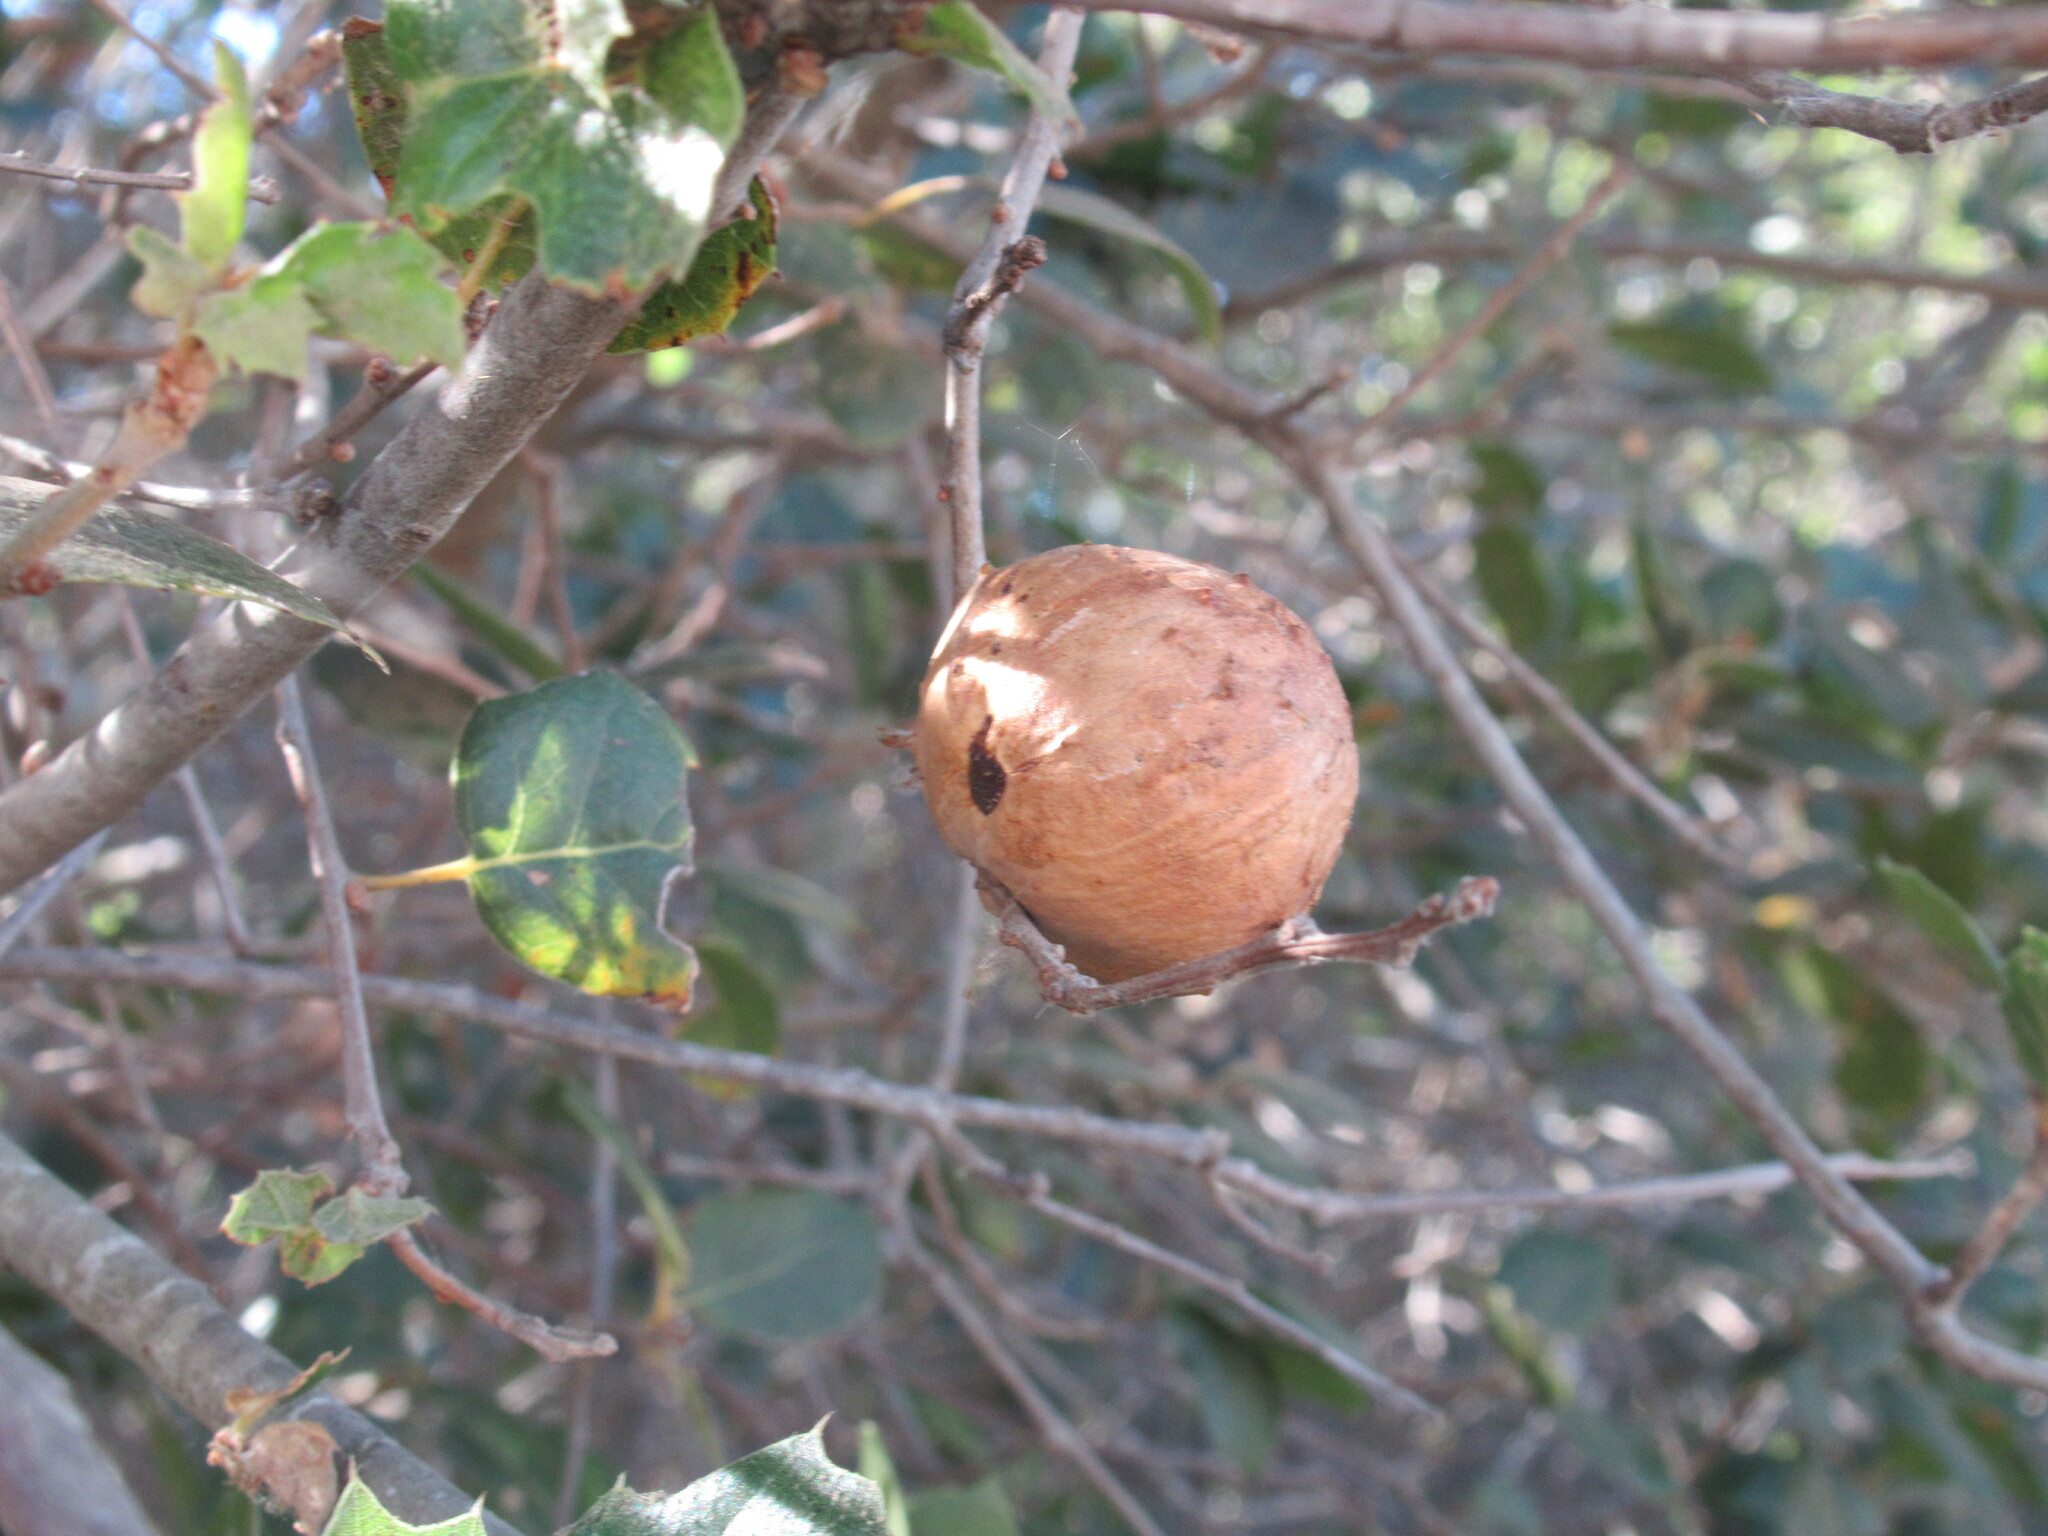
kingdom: Animalia
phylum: Arthropoda
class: Insecta
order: Hymenoptera
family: Cynipidae
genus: Amphibolips
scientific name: Amphibolips quercuspomiformis
